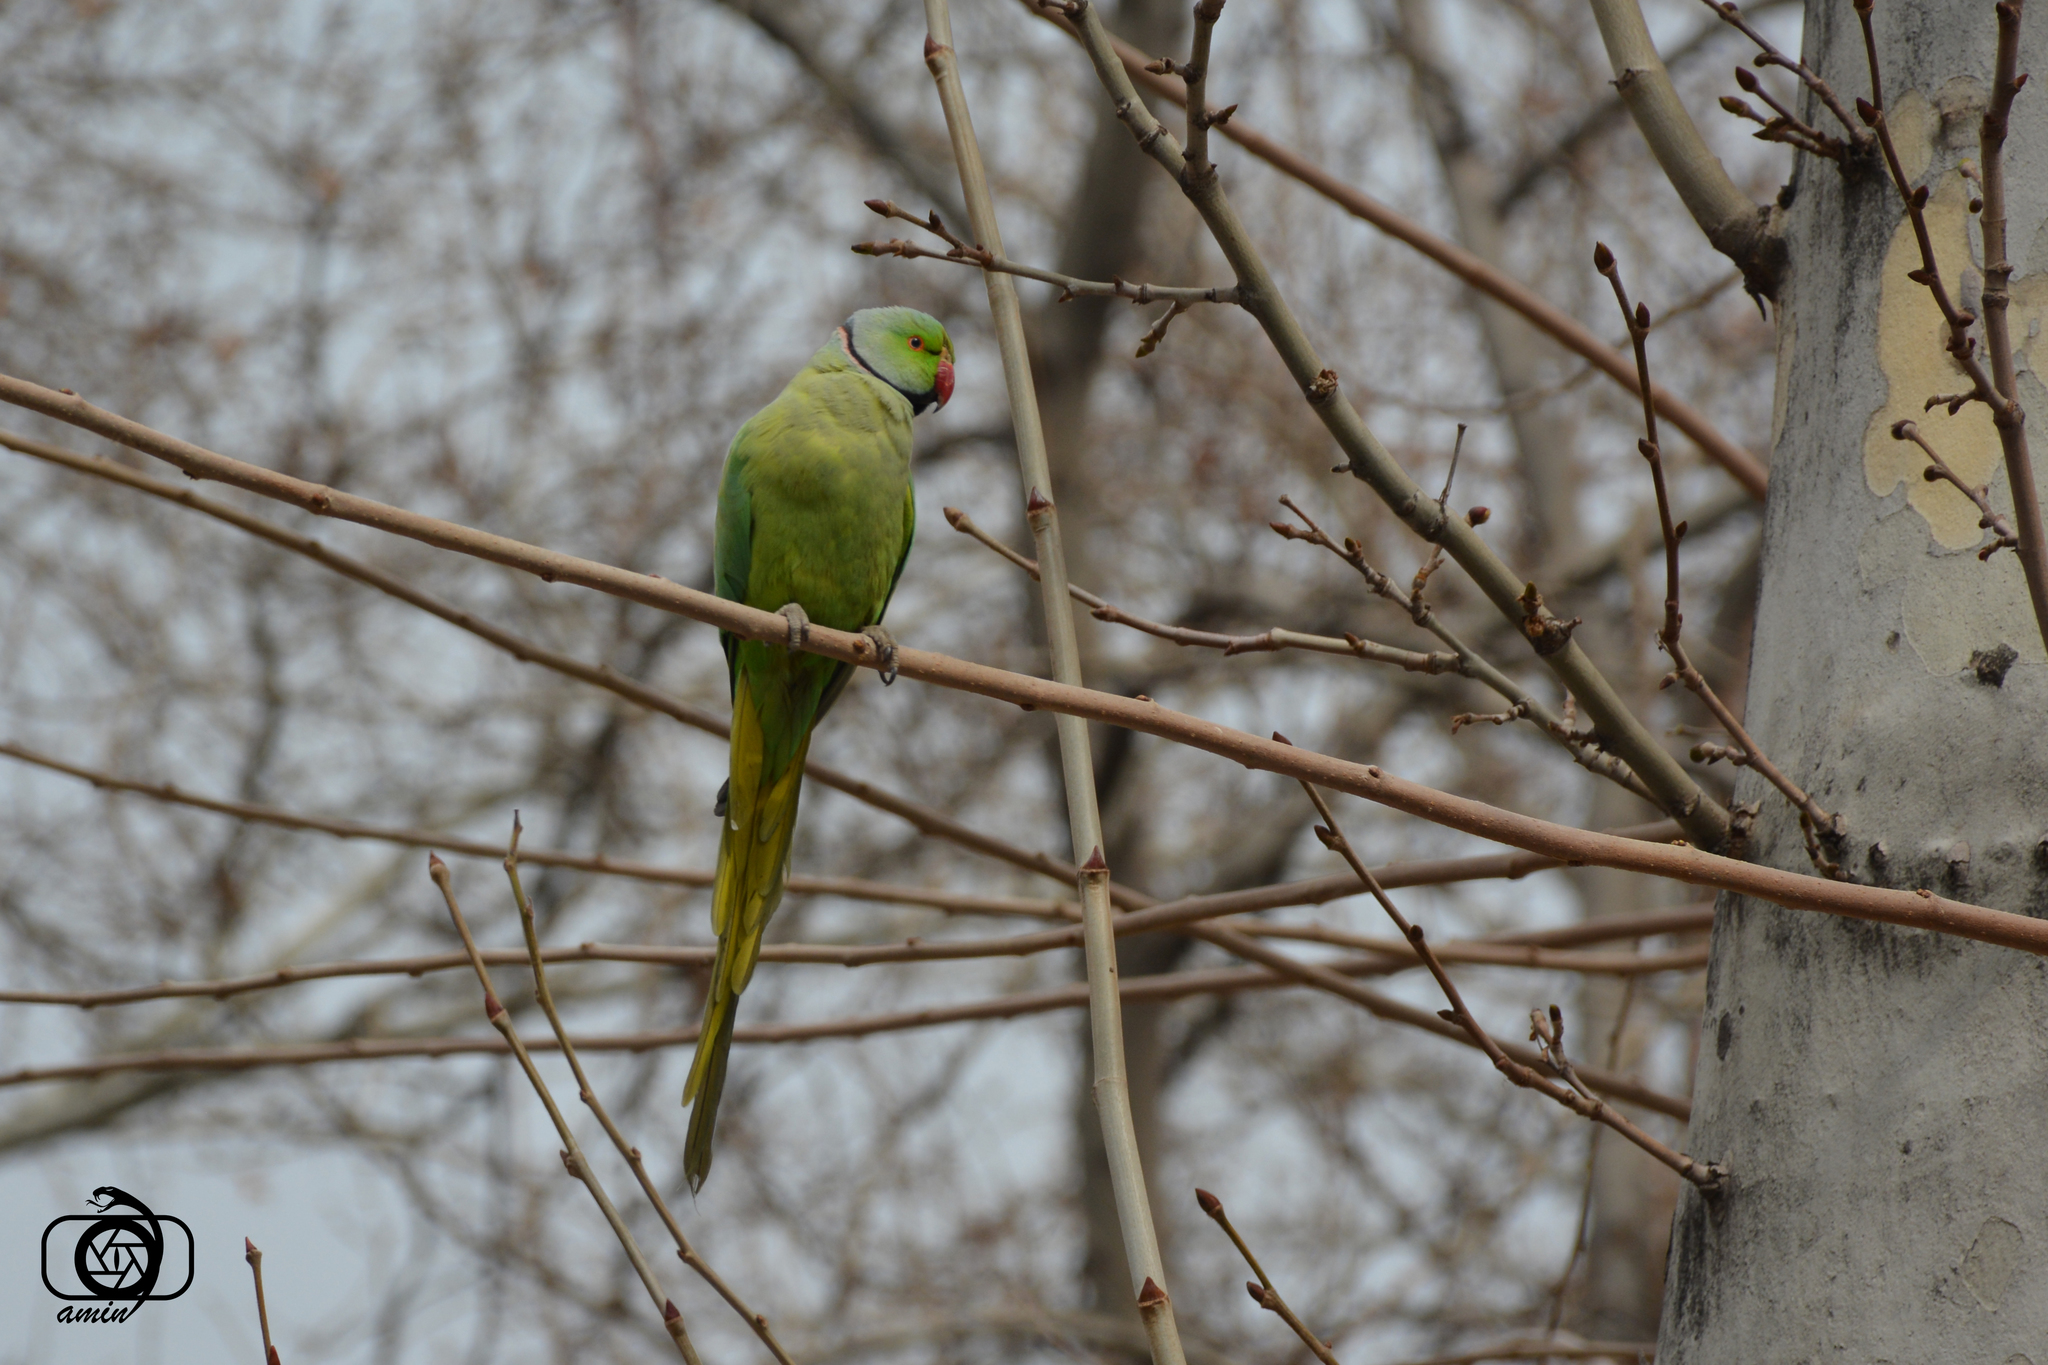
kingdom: Animalia
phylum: Chordata
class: Aves
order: Psittaciformes
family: Psittacidae
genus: Psittacula
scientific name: Psittacula krameri
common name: Rose-ringed parakeet
